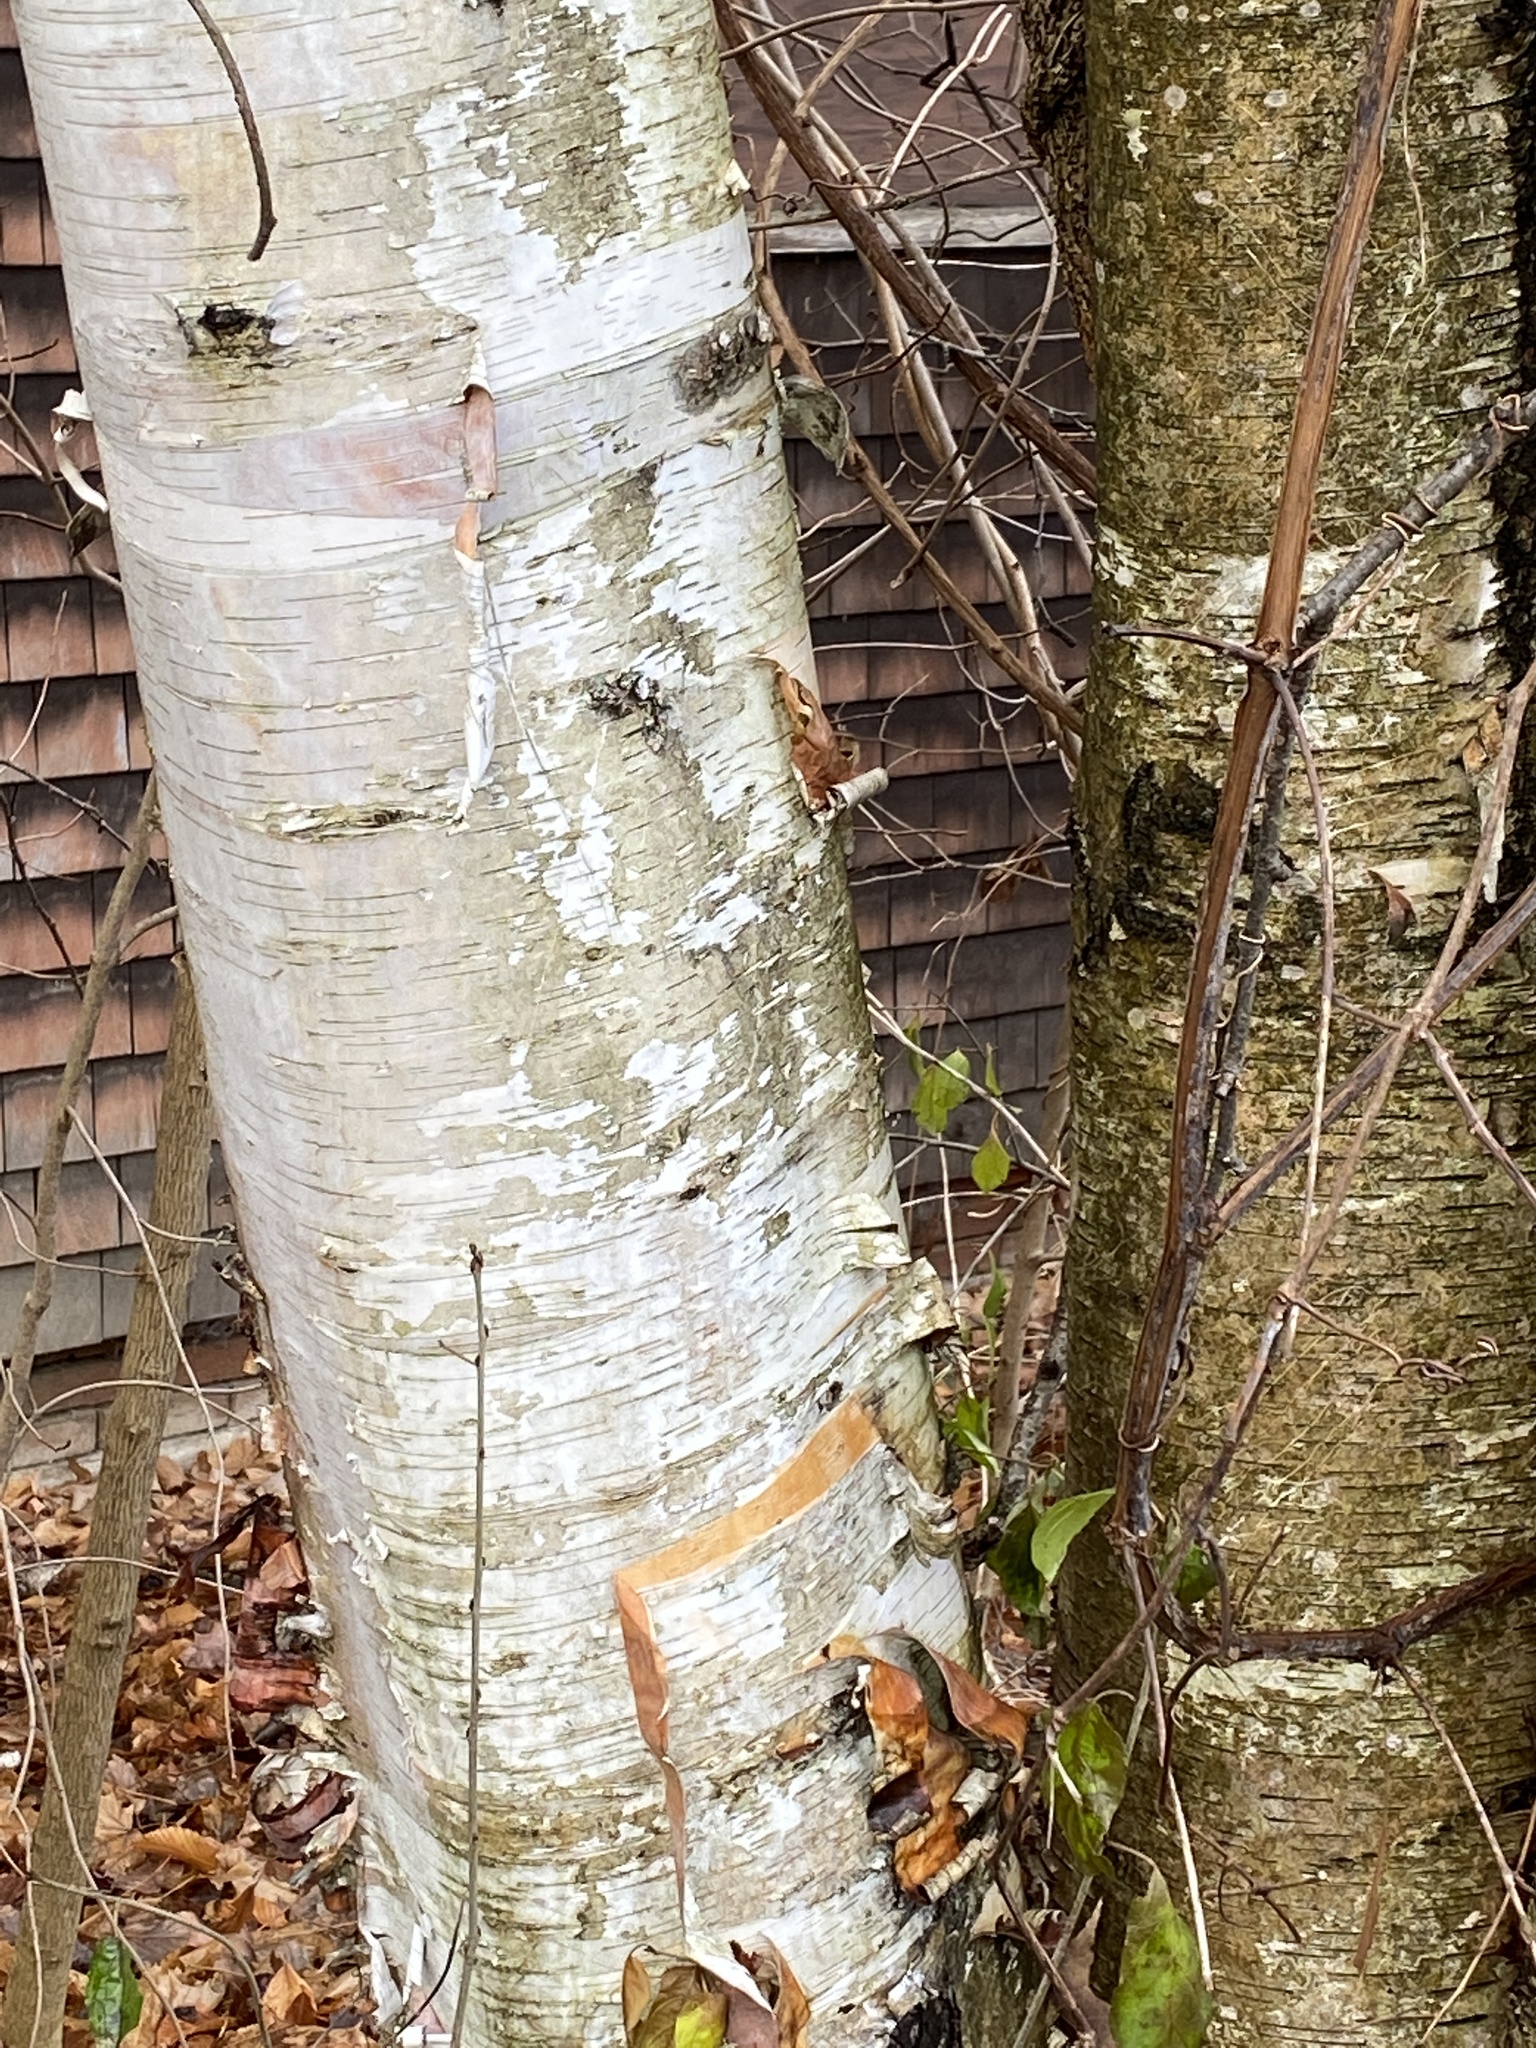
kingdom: Plantae
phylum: Tracheophyta
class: Magnoliopsida
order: Fagales
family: Betulaceae
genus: Betula
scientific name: Betula papyrifera
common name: Paper birch
